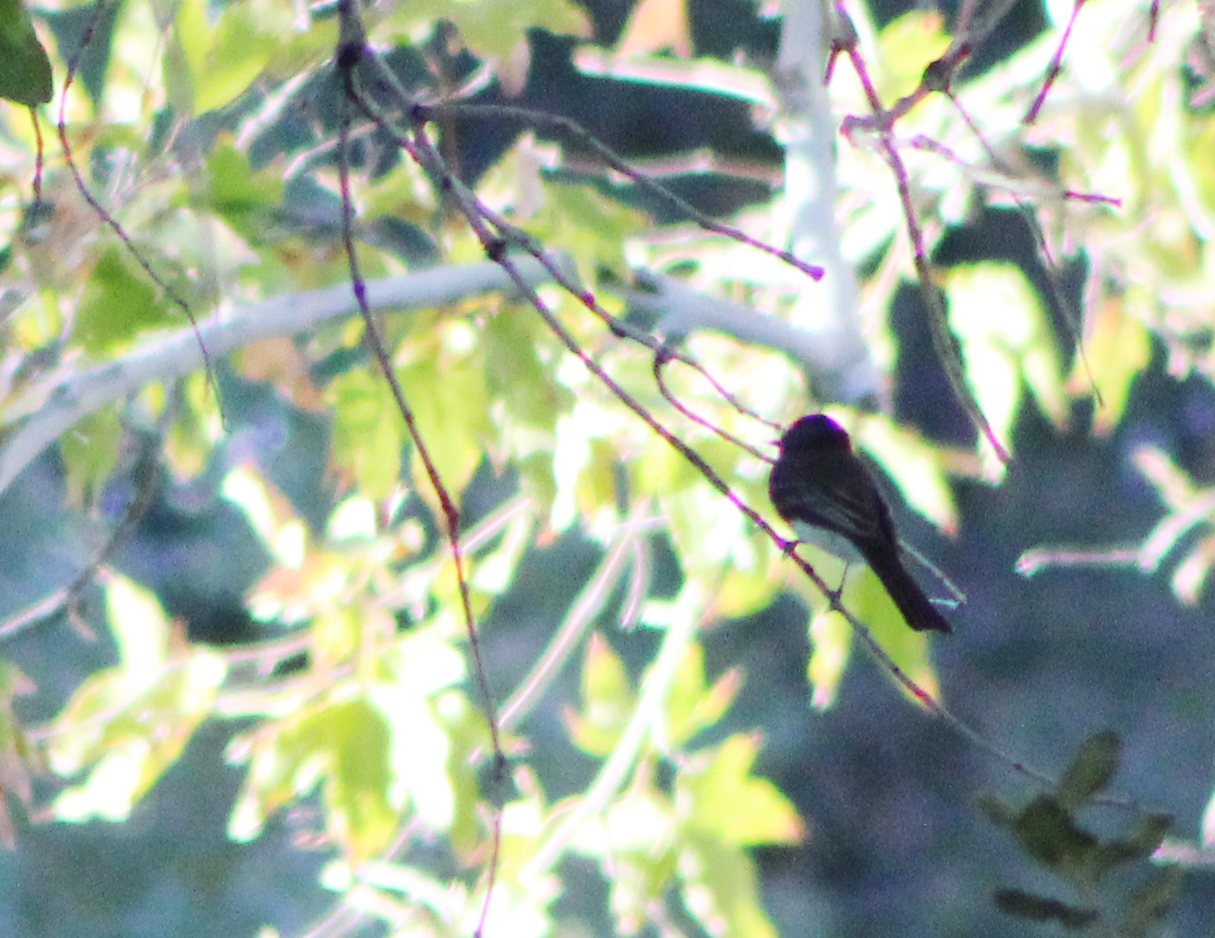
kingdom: Animalia
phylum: Chordata
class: Aves
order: Passeriformes
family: Tyrannidae
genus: Sayornis
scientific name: Sayornis nigricans
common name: Black phoebe
